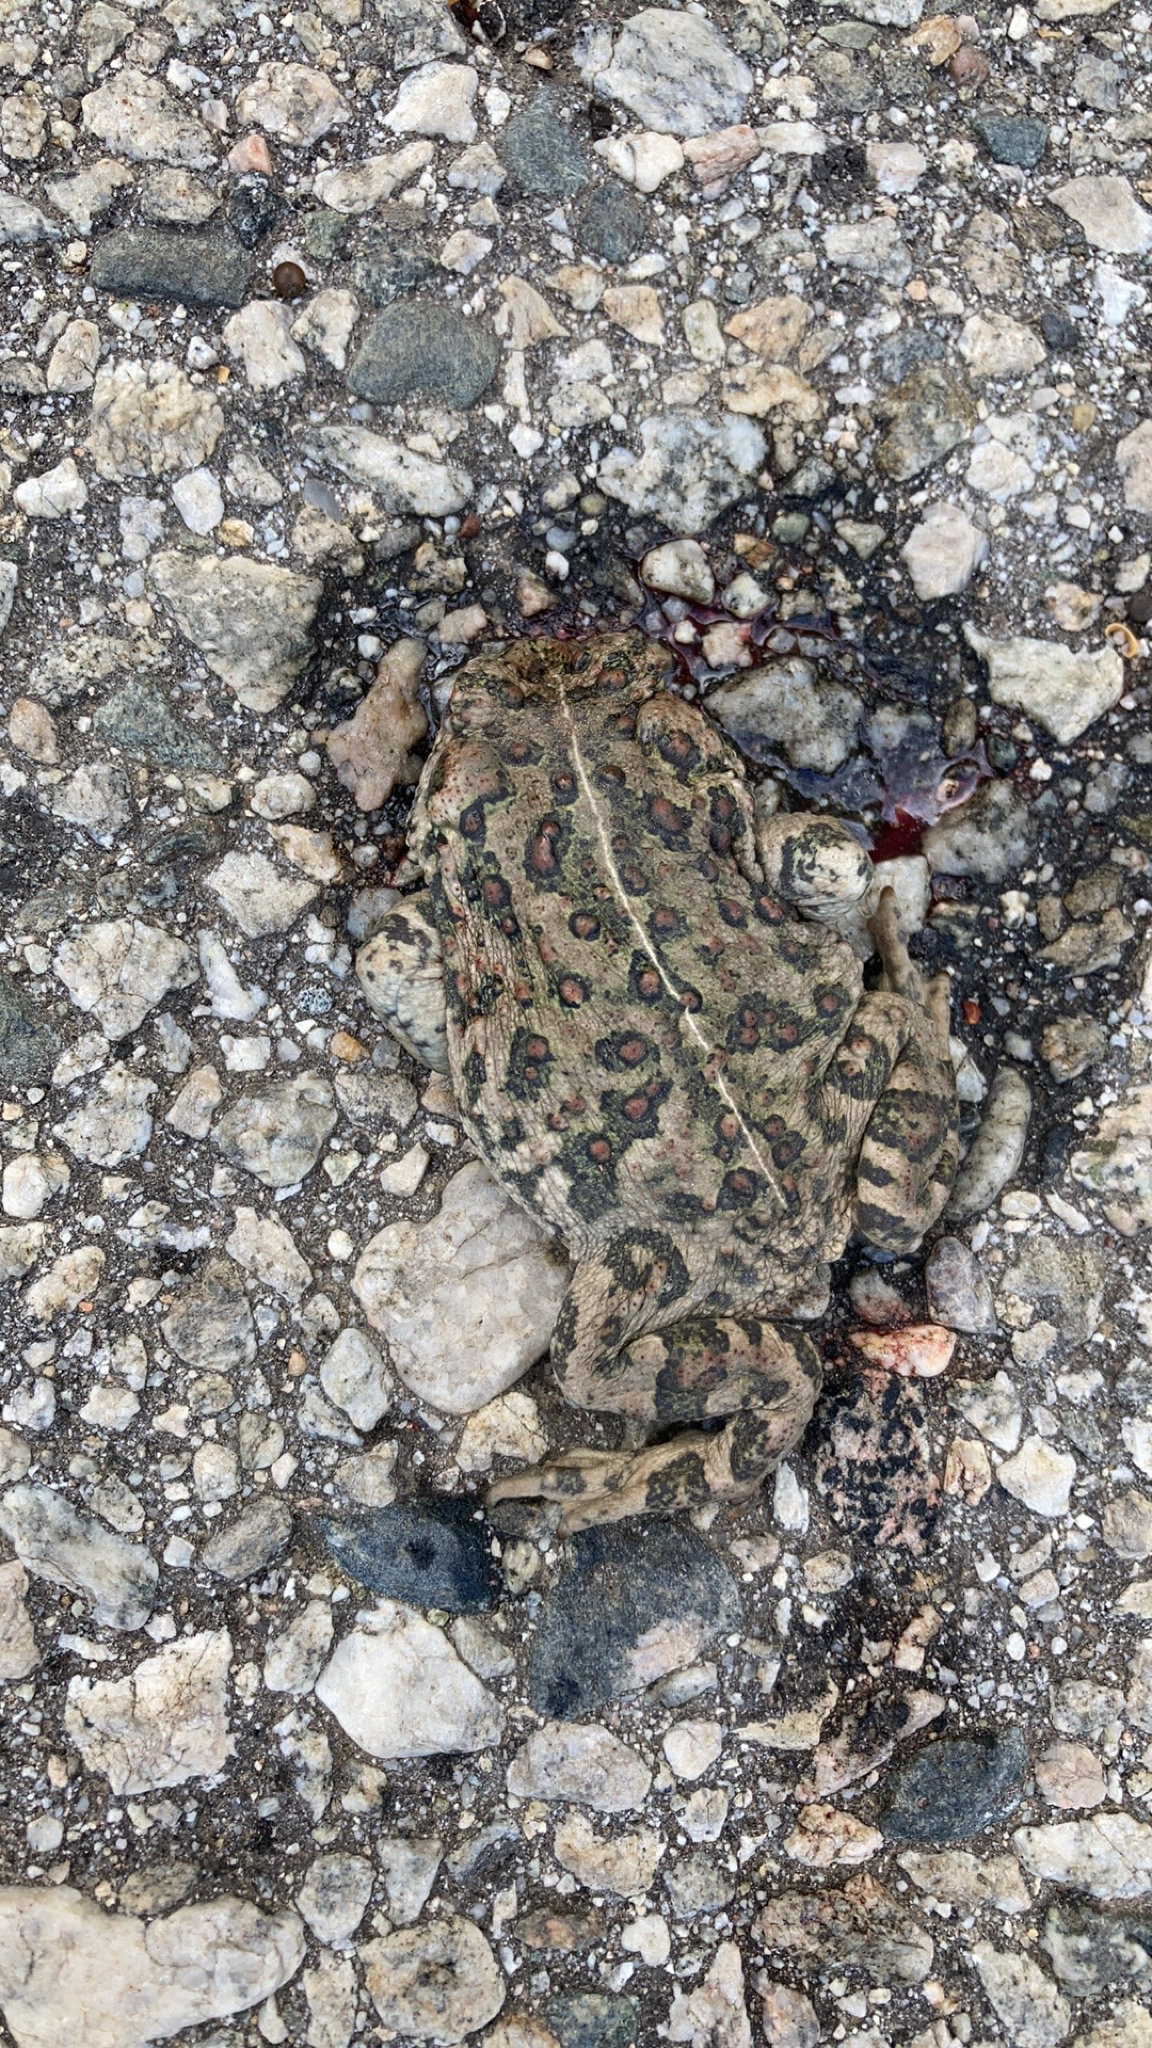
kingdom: Animalia
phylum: Chordata
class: Amphibia
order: Anura
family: Bufonidae
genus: Anaxyrus
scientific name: Anaxyrus boreas
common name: Western toad
